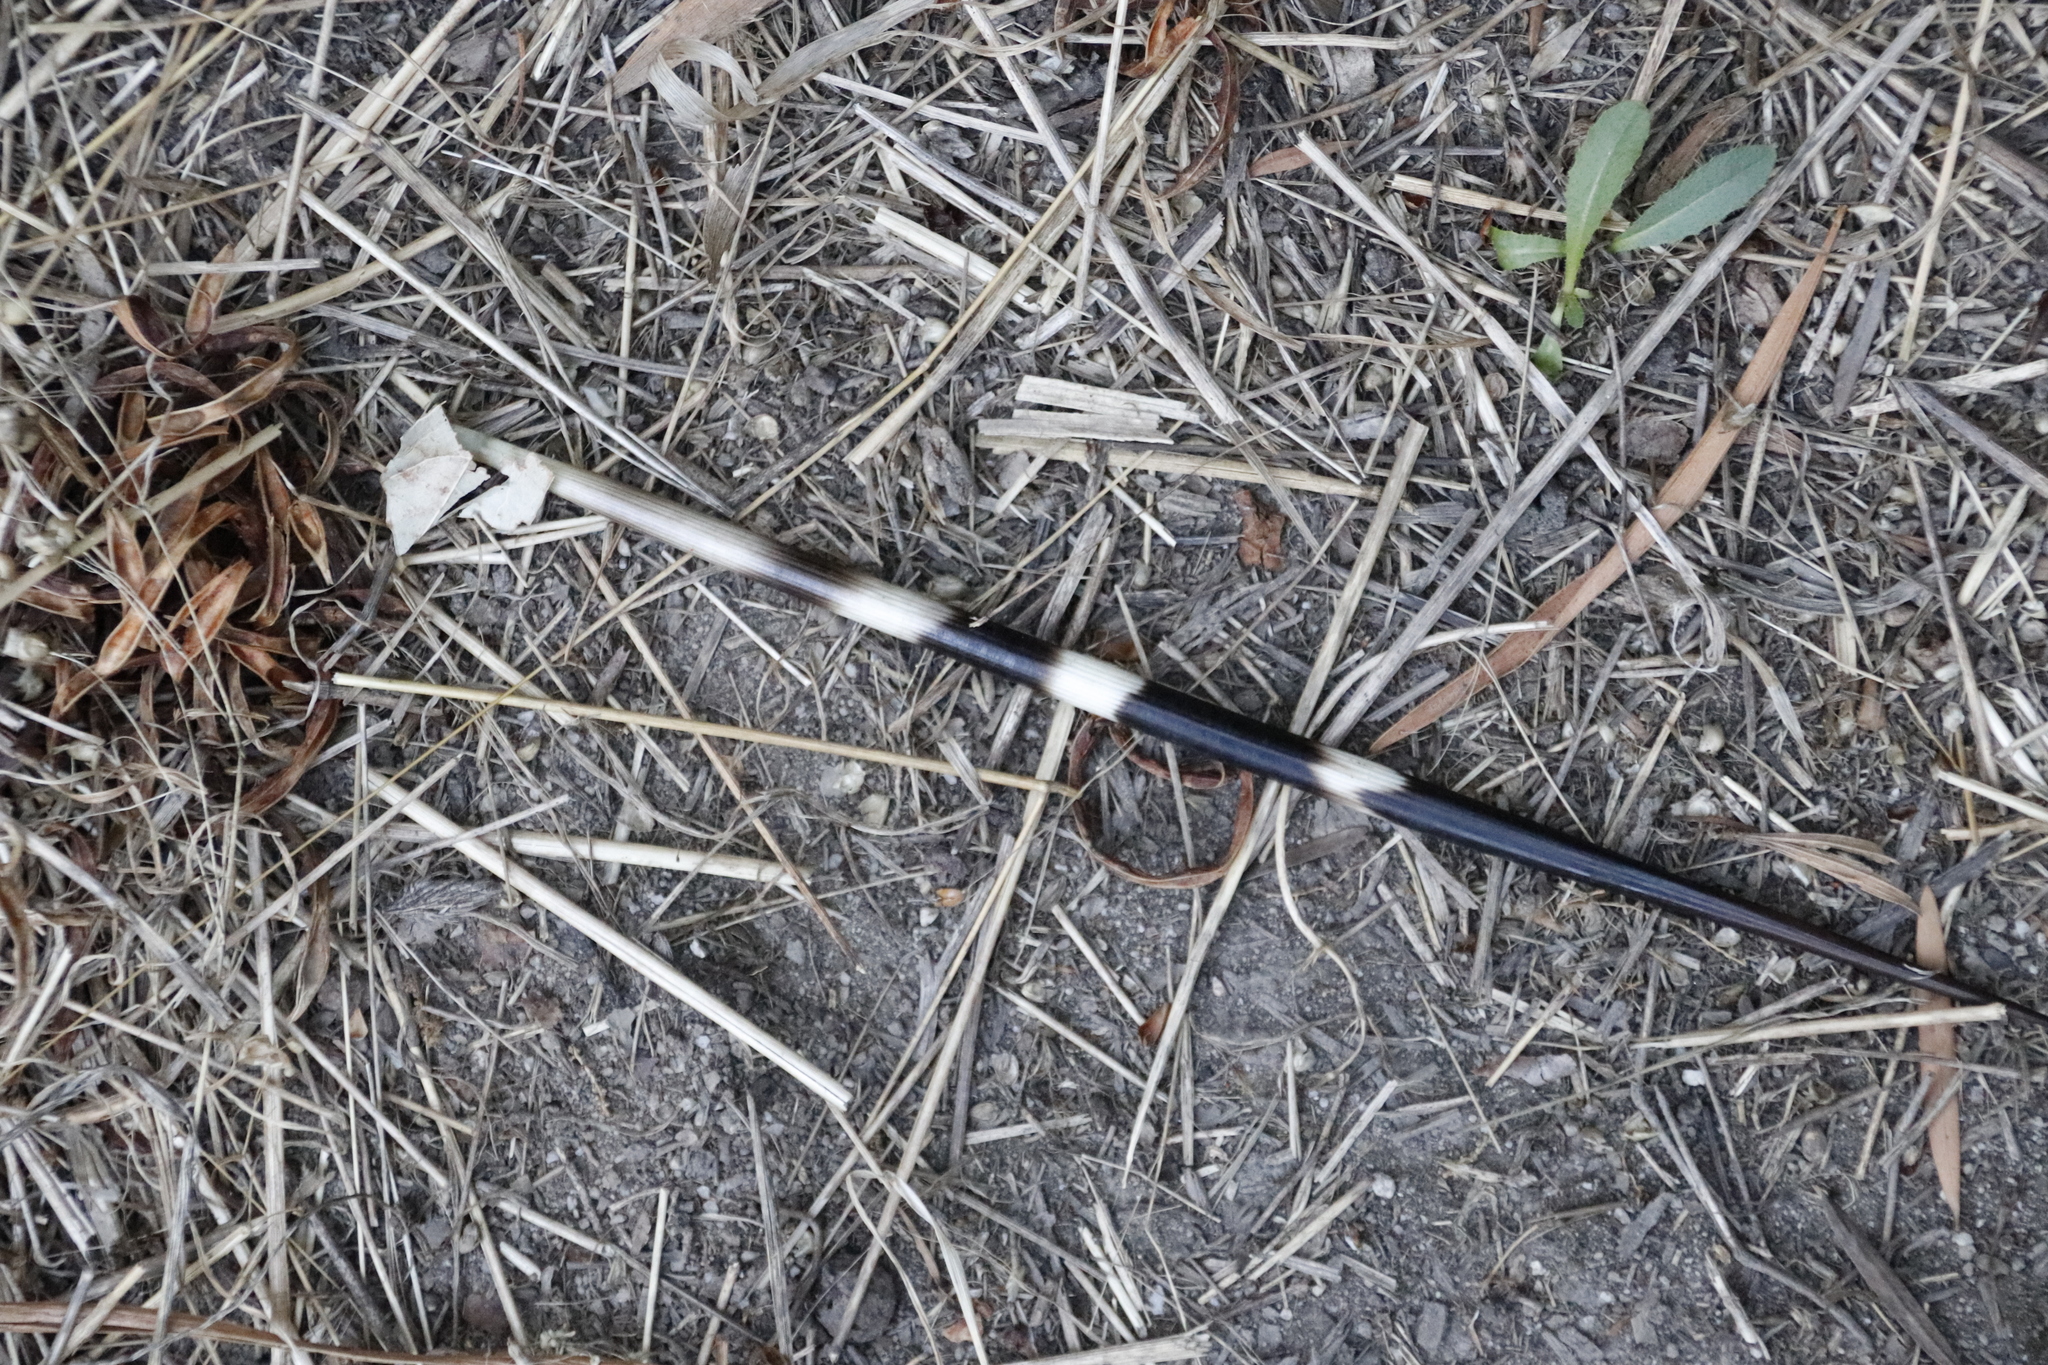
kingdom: Animalia
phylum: Chordata
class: Mammalia
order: Rodentia
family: Hystricidae
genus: Hystrix
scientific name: Hystrix africaeaustralis
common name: Cape porcupine
